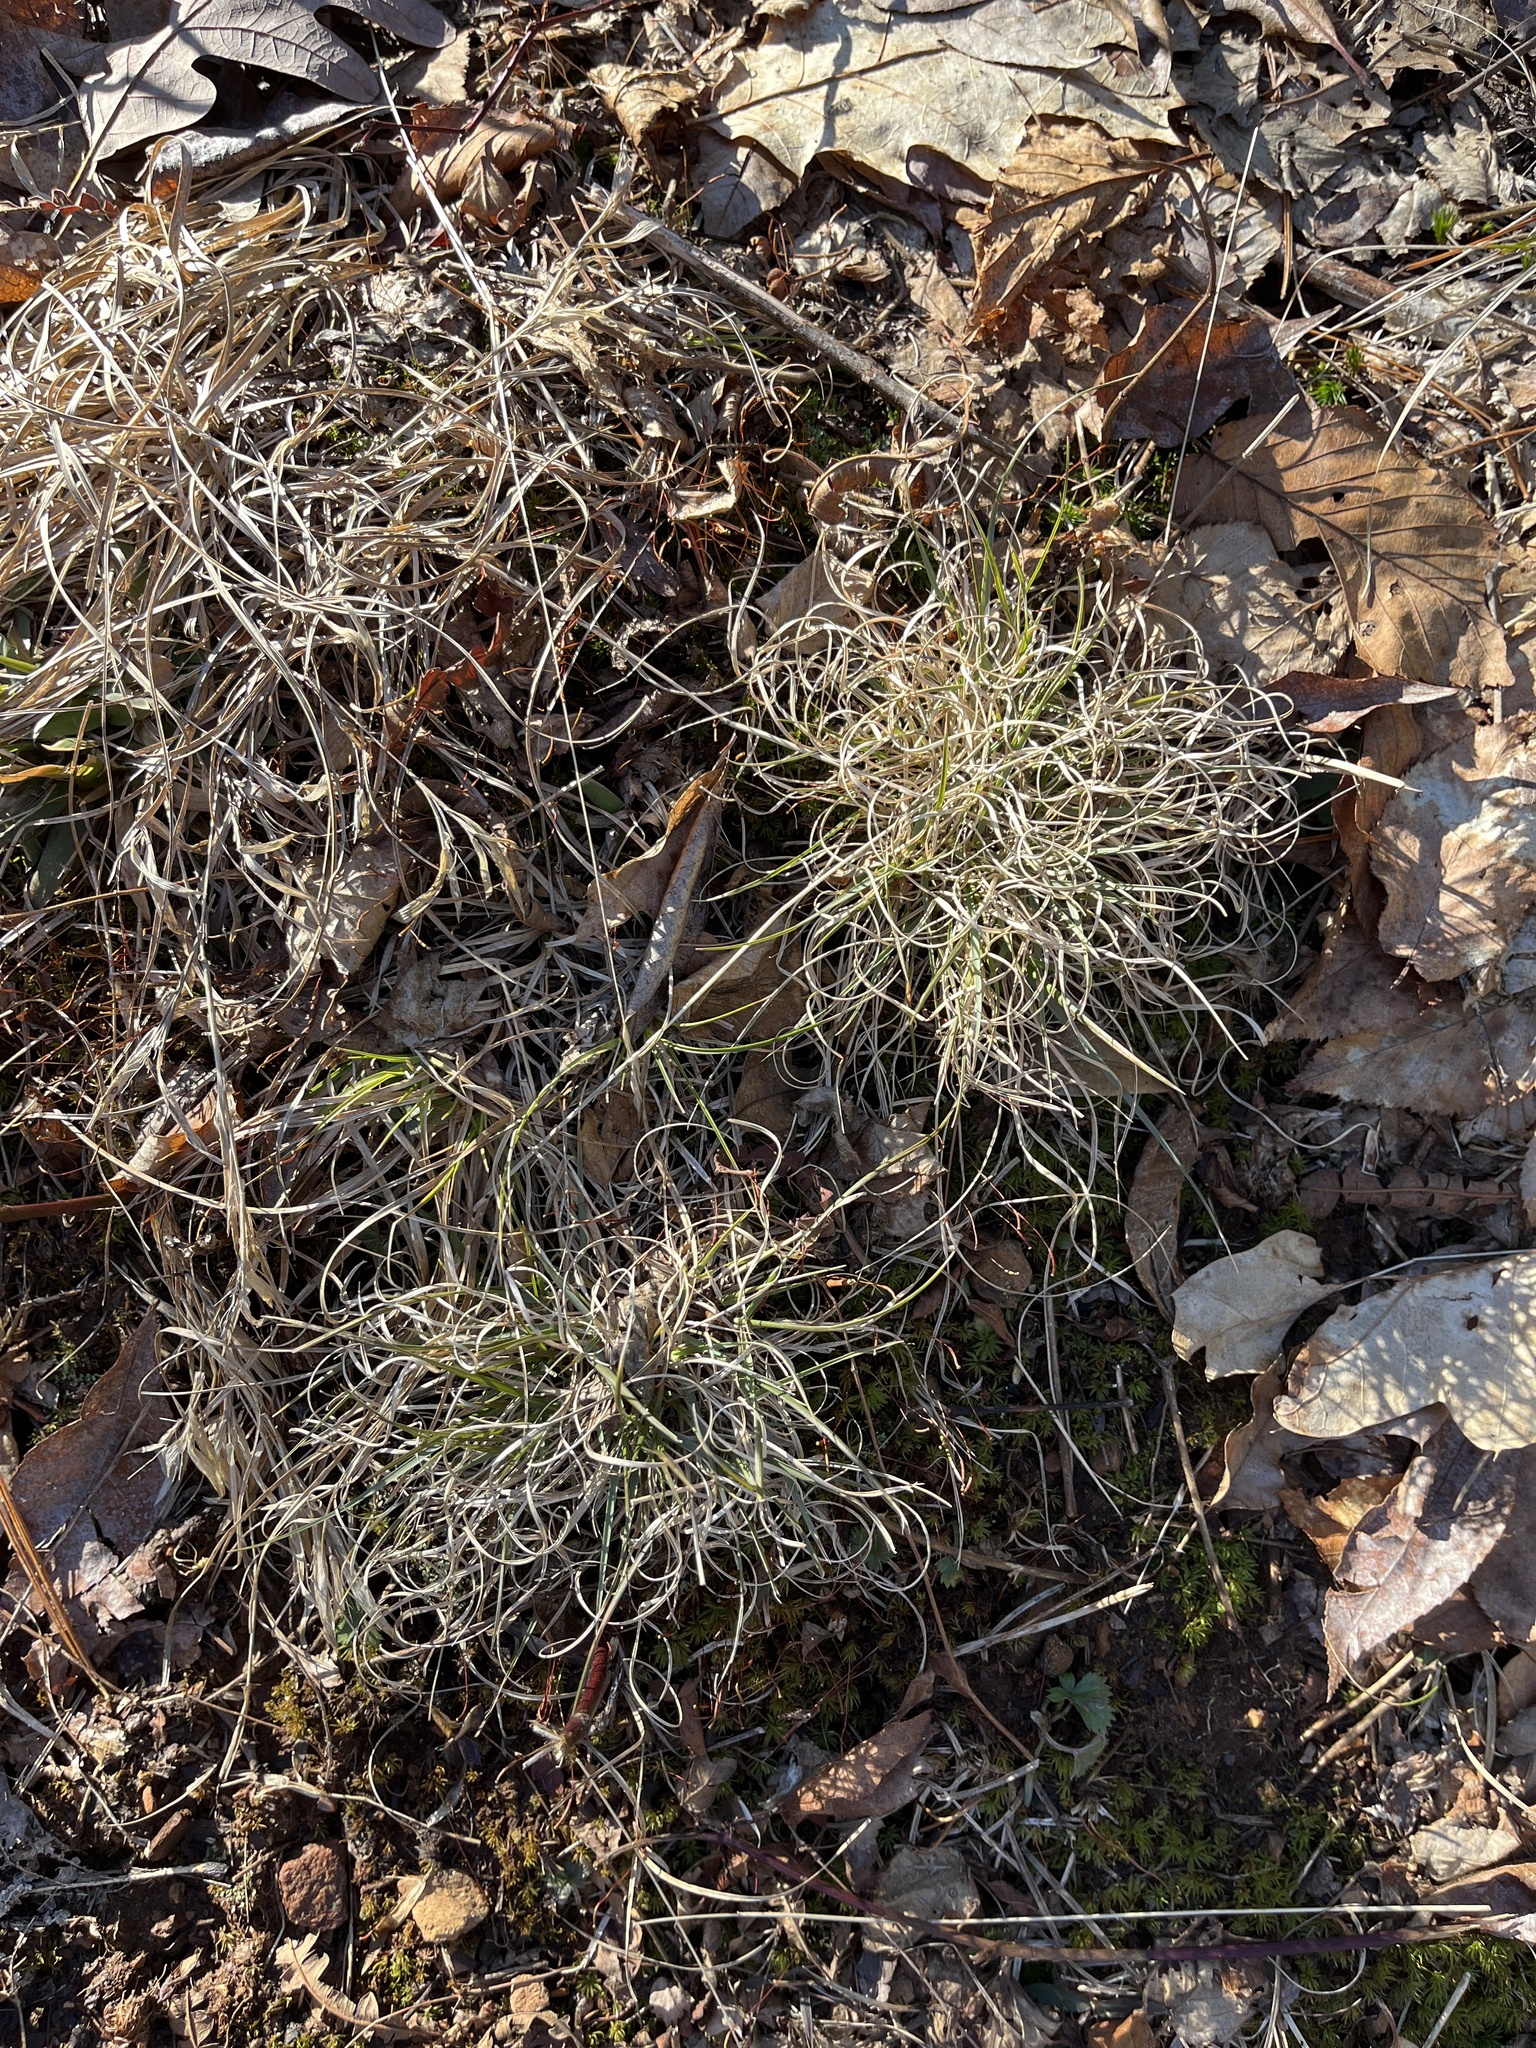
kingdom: Plantae
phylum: Tracheophyta
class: Liliopsida
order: Poales
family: Poaceae
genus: Danthonia
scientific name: Danthonia spicata
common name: Common wild oatgrass
